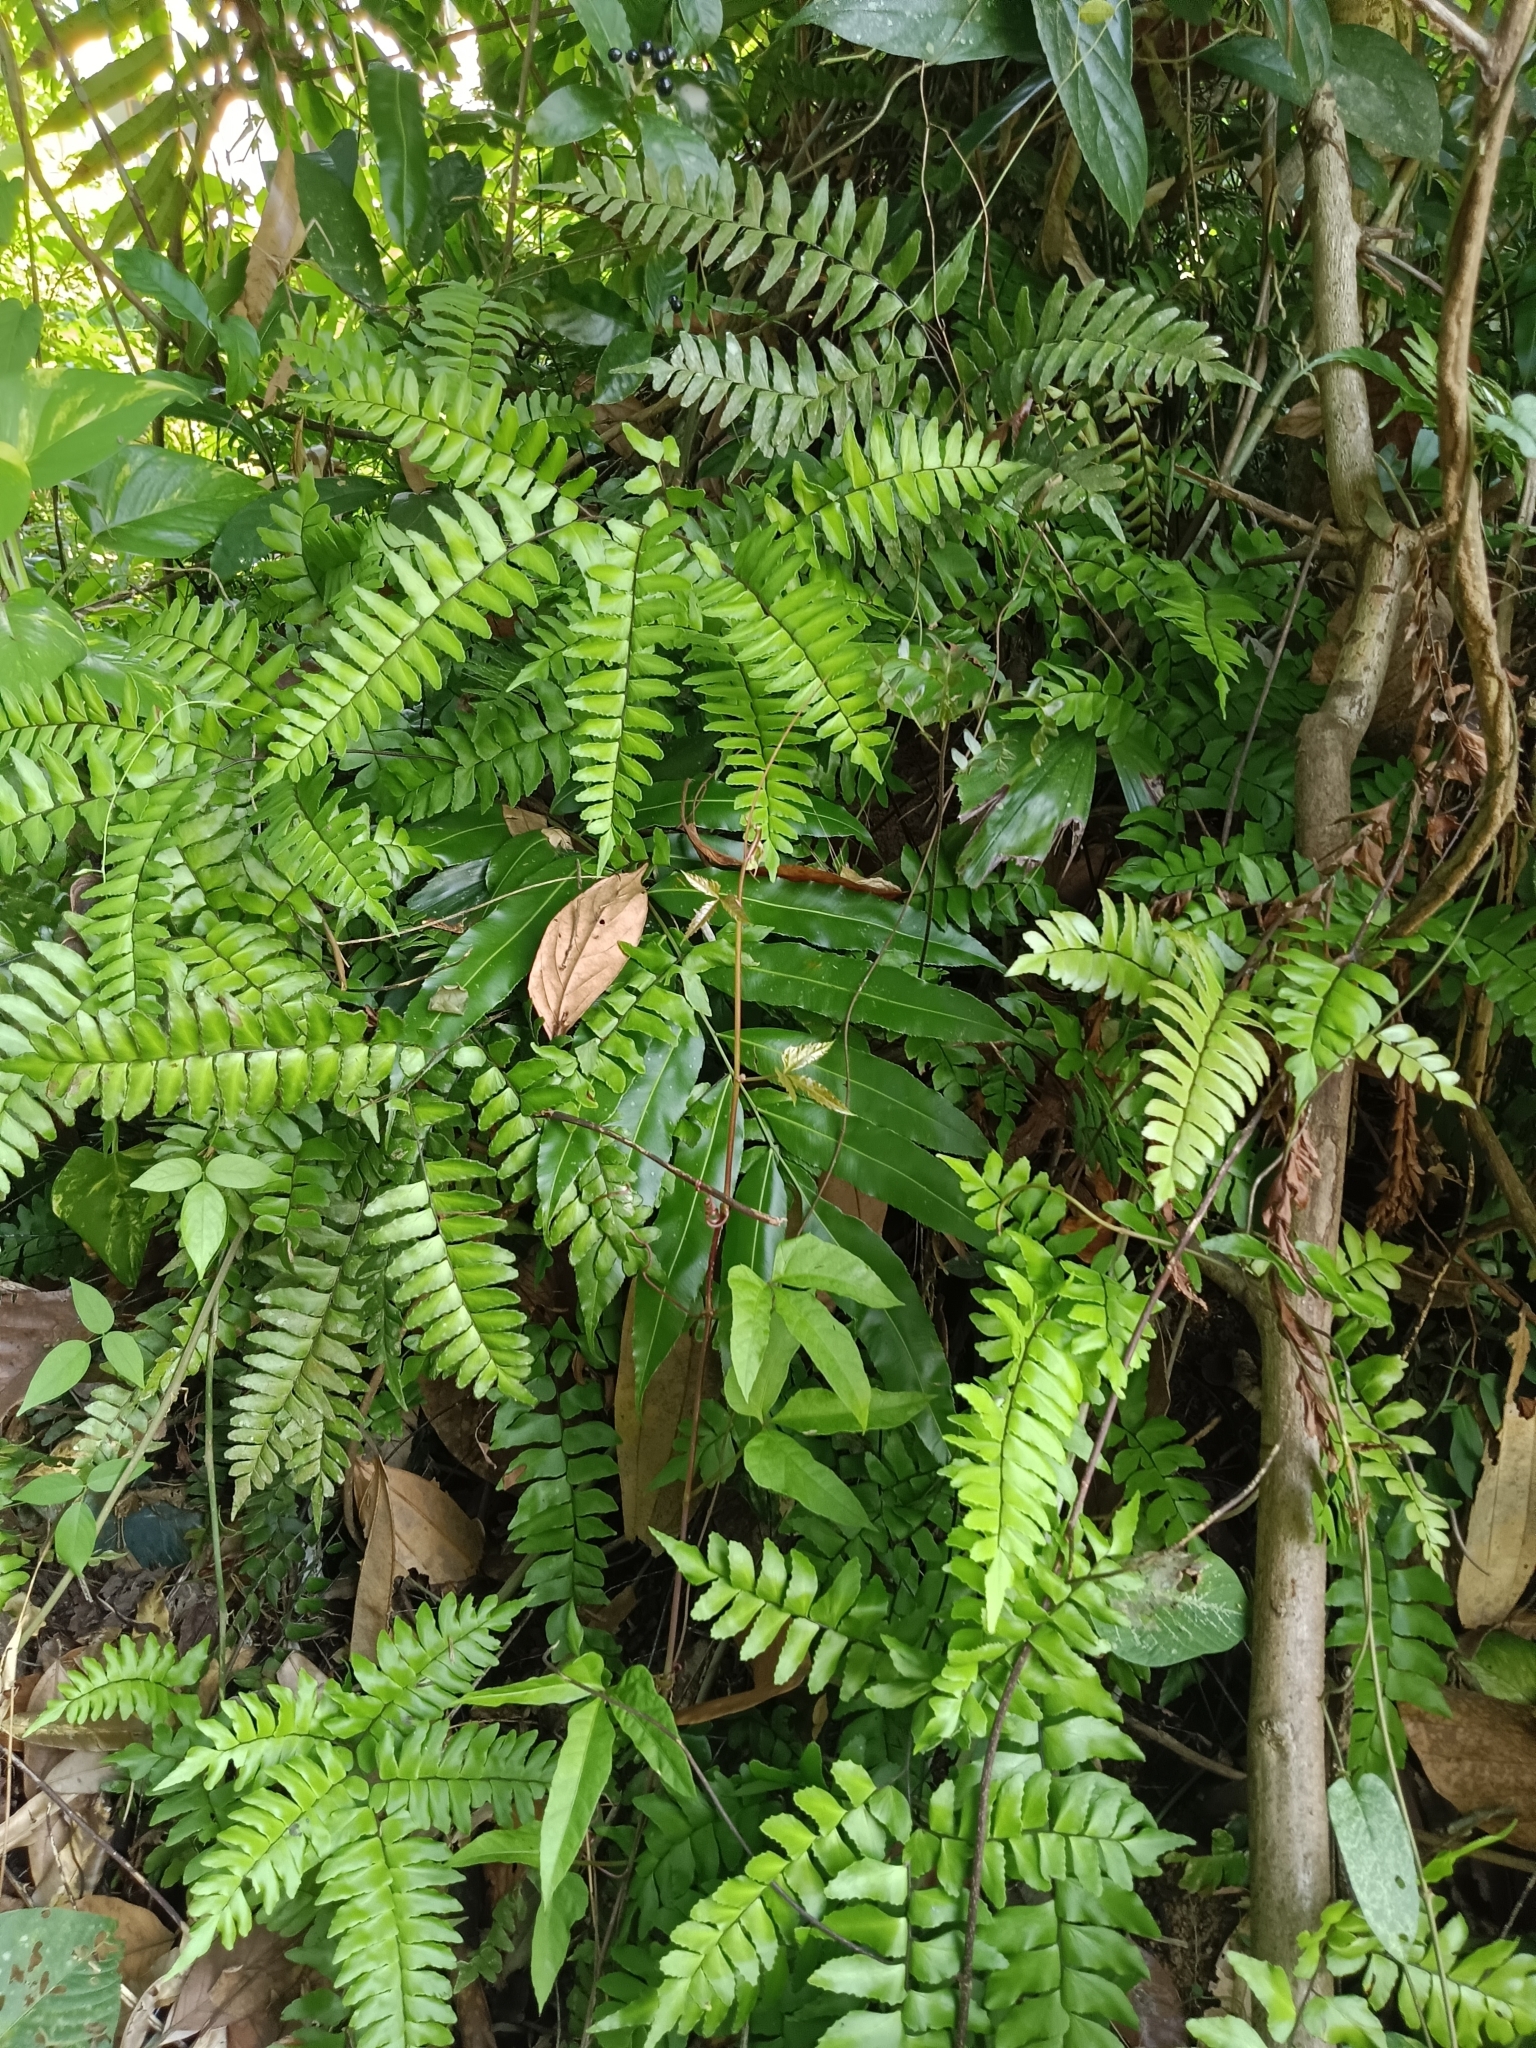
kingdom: Plantae
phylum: Tracheophyta
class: Polypodiopsida
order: Polypodiales
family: Pteridaceae
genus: Adiantum
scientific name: Adiantum latifolium
